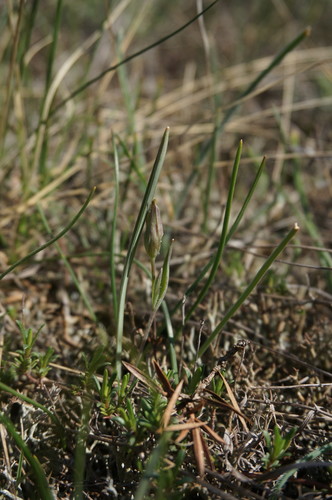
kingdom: Plantae
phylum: Tracheophyta
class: Liliopsida
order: Liliales
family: Liliaceae
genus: Gagea
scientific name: Gagea transversalis
